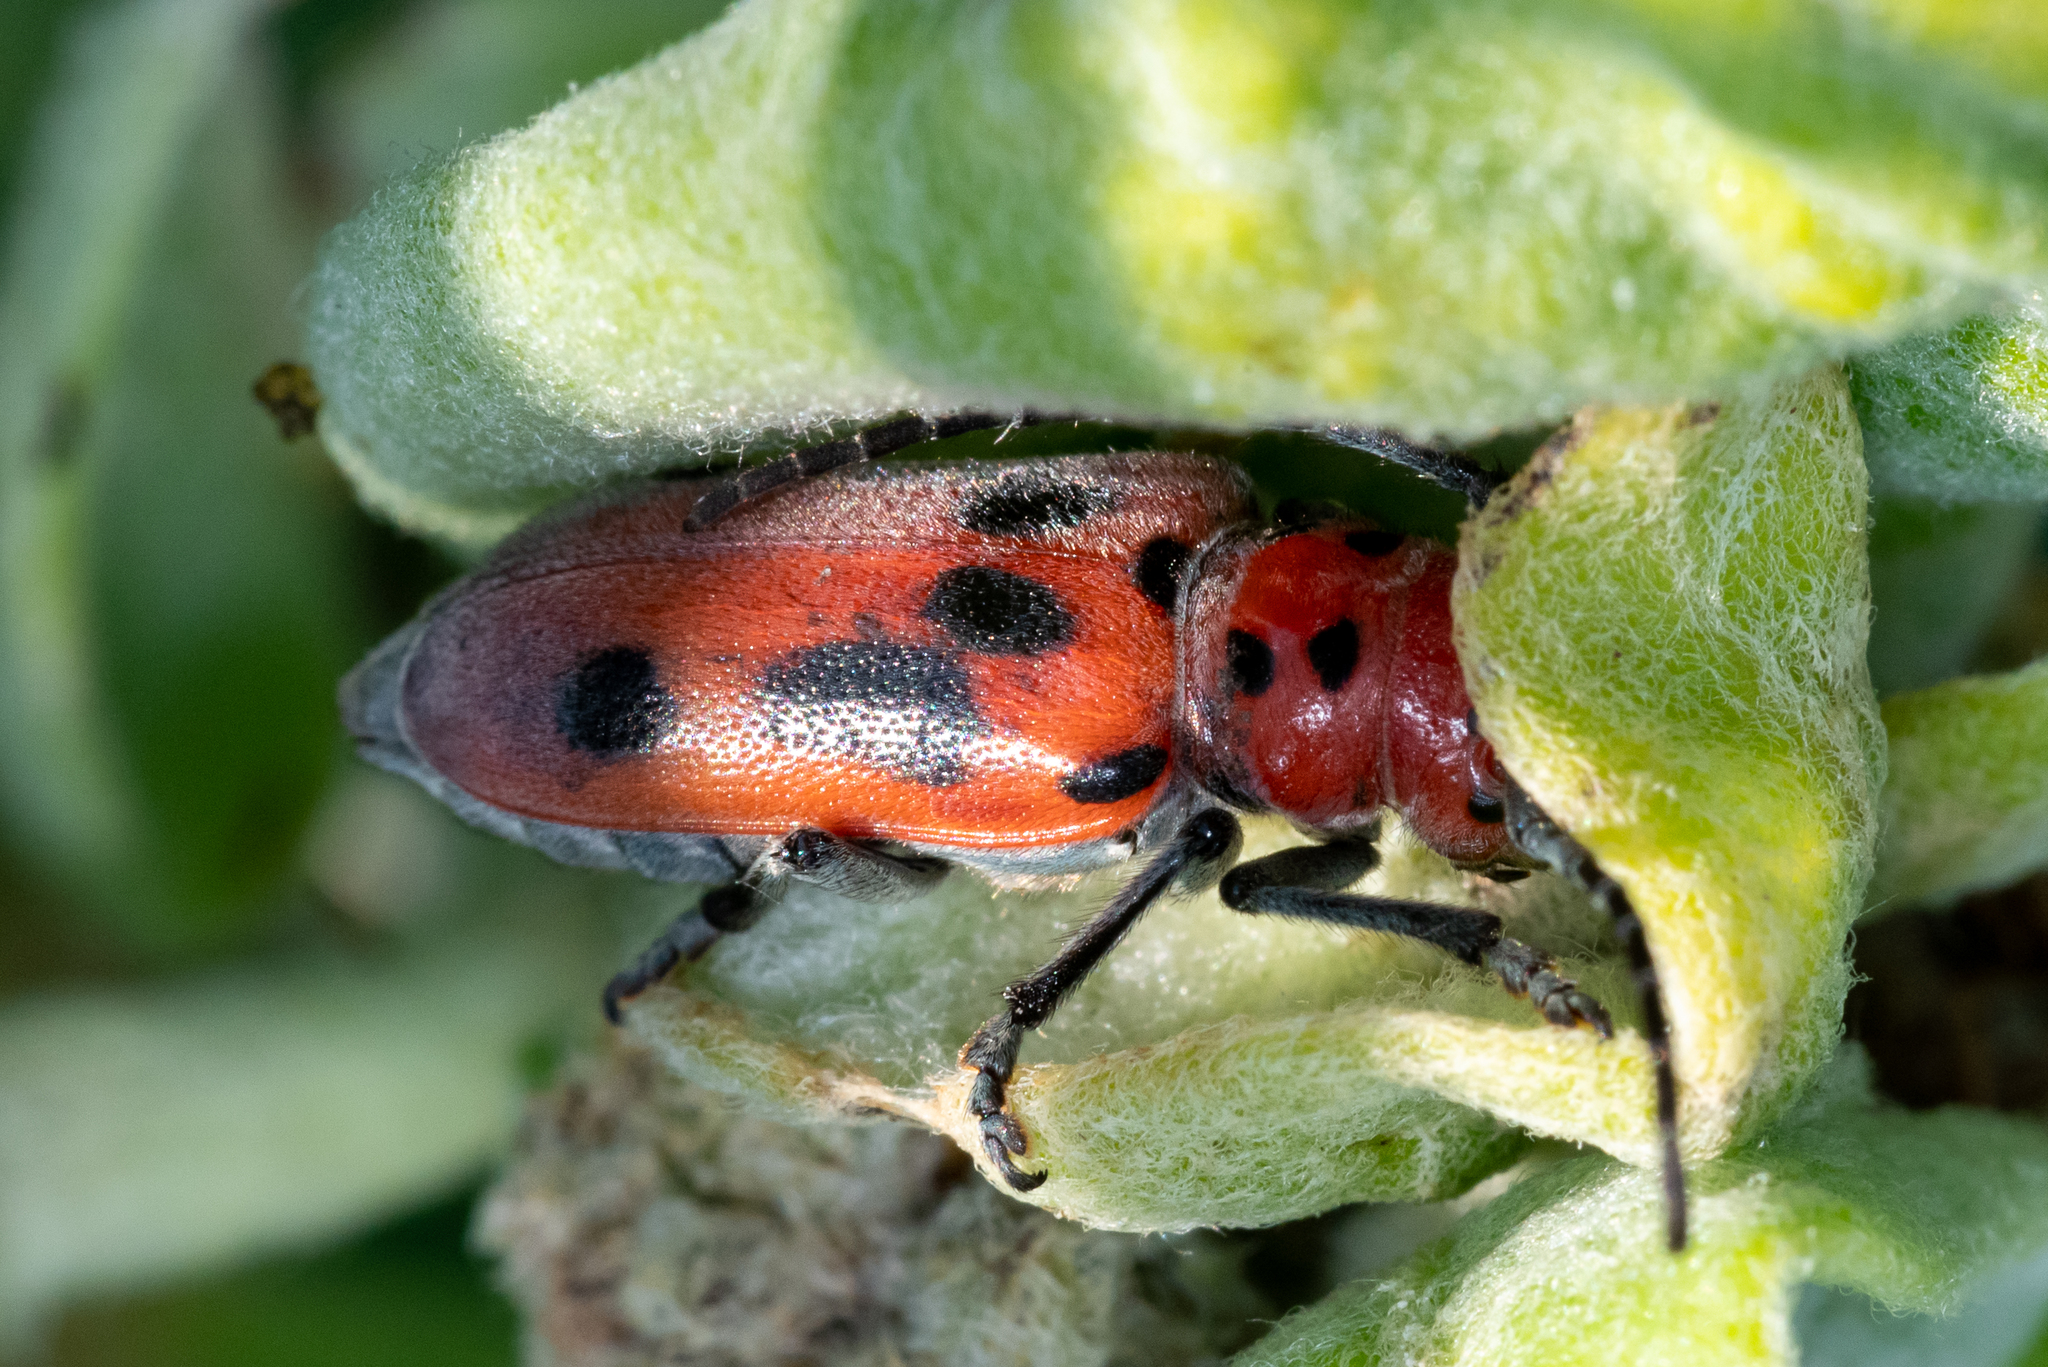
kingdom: Animalia
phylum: Arthropoda
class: Insecta
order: Coleoptera
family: Cerambycidae
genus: Tetraopes
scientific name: Tetraopes tetrophthalmus
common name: Red milkweed beetle
